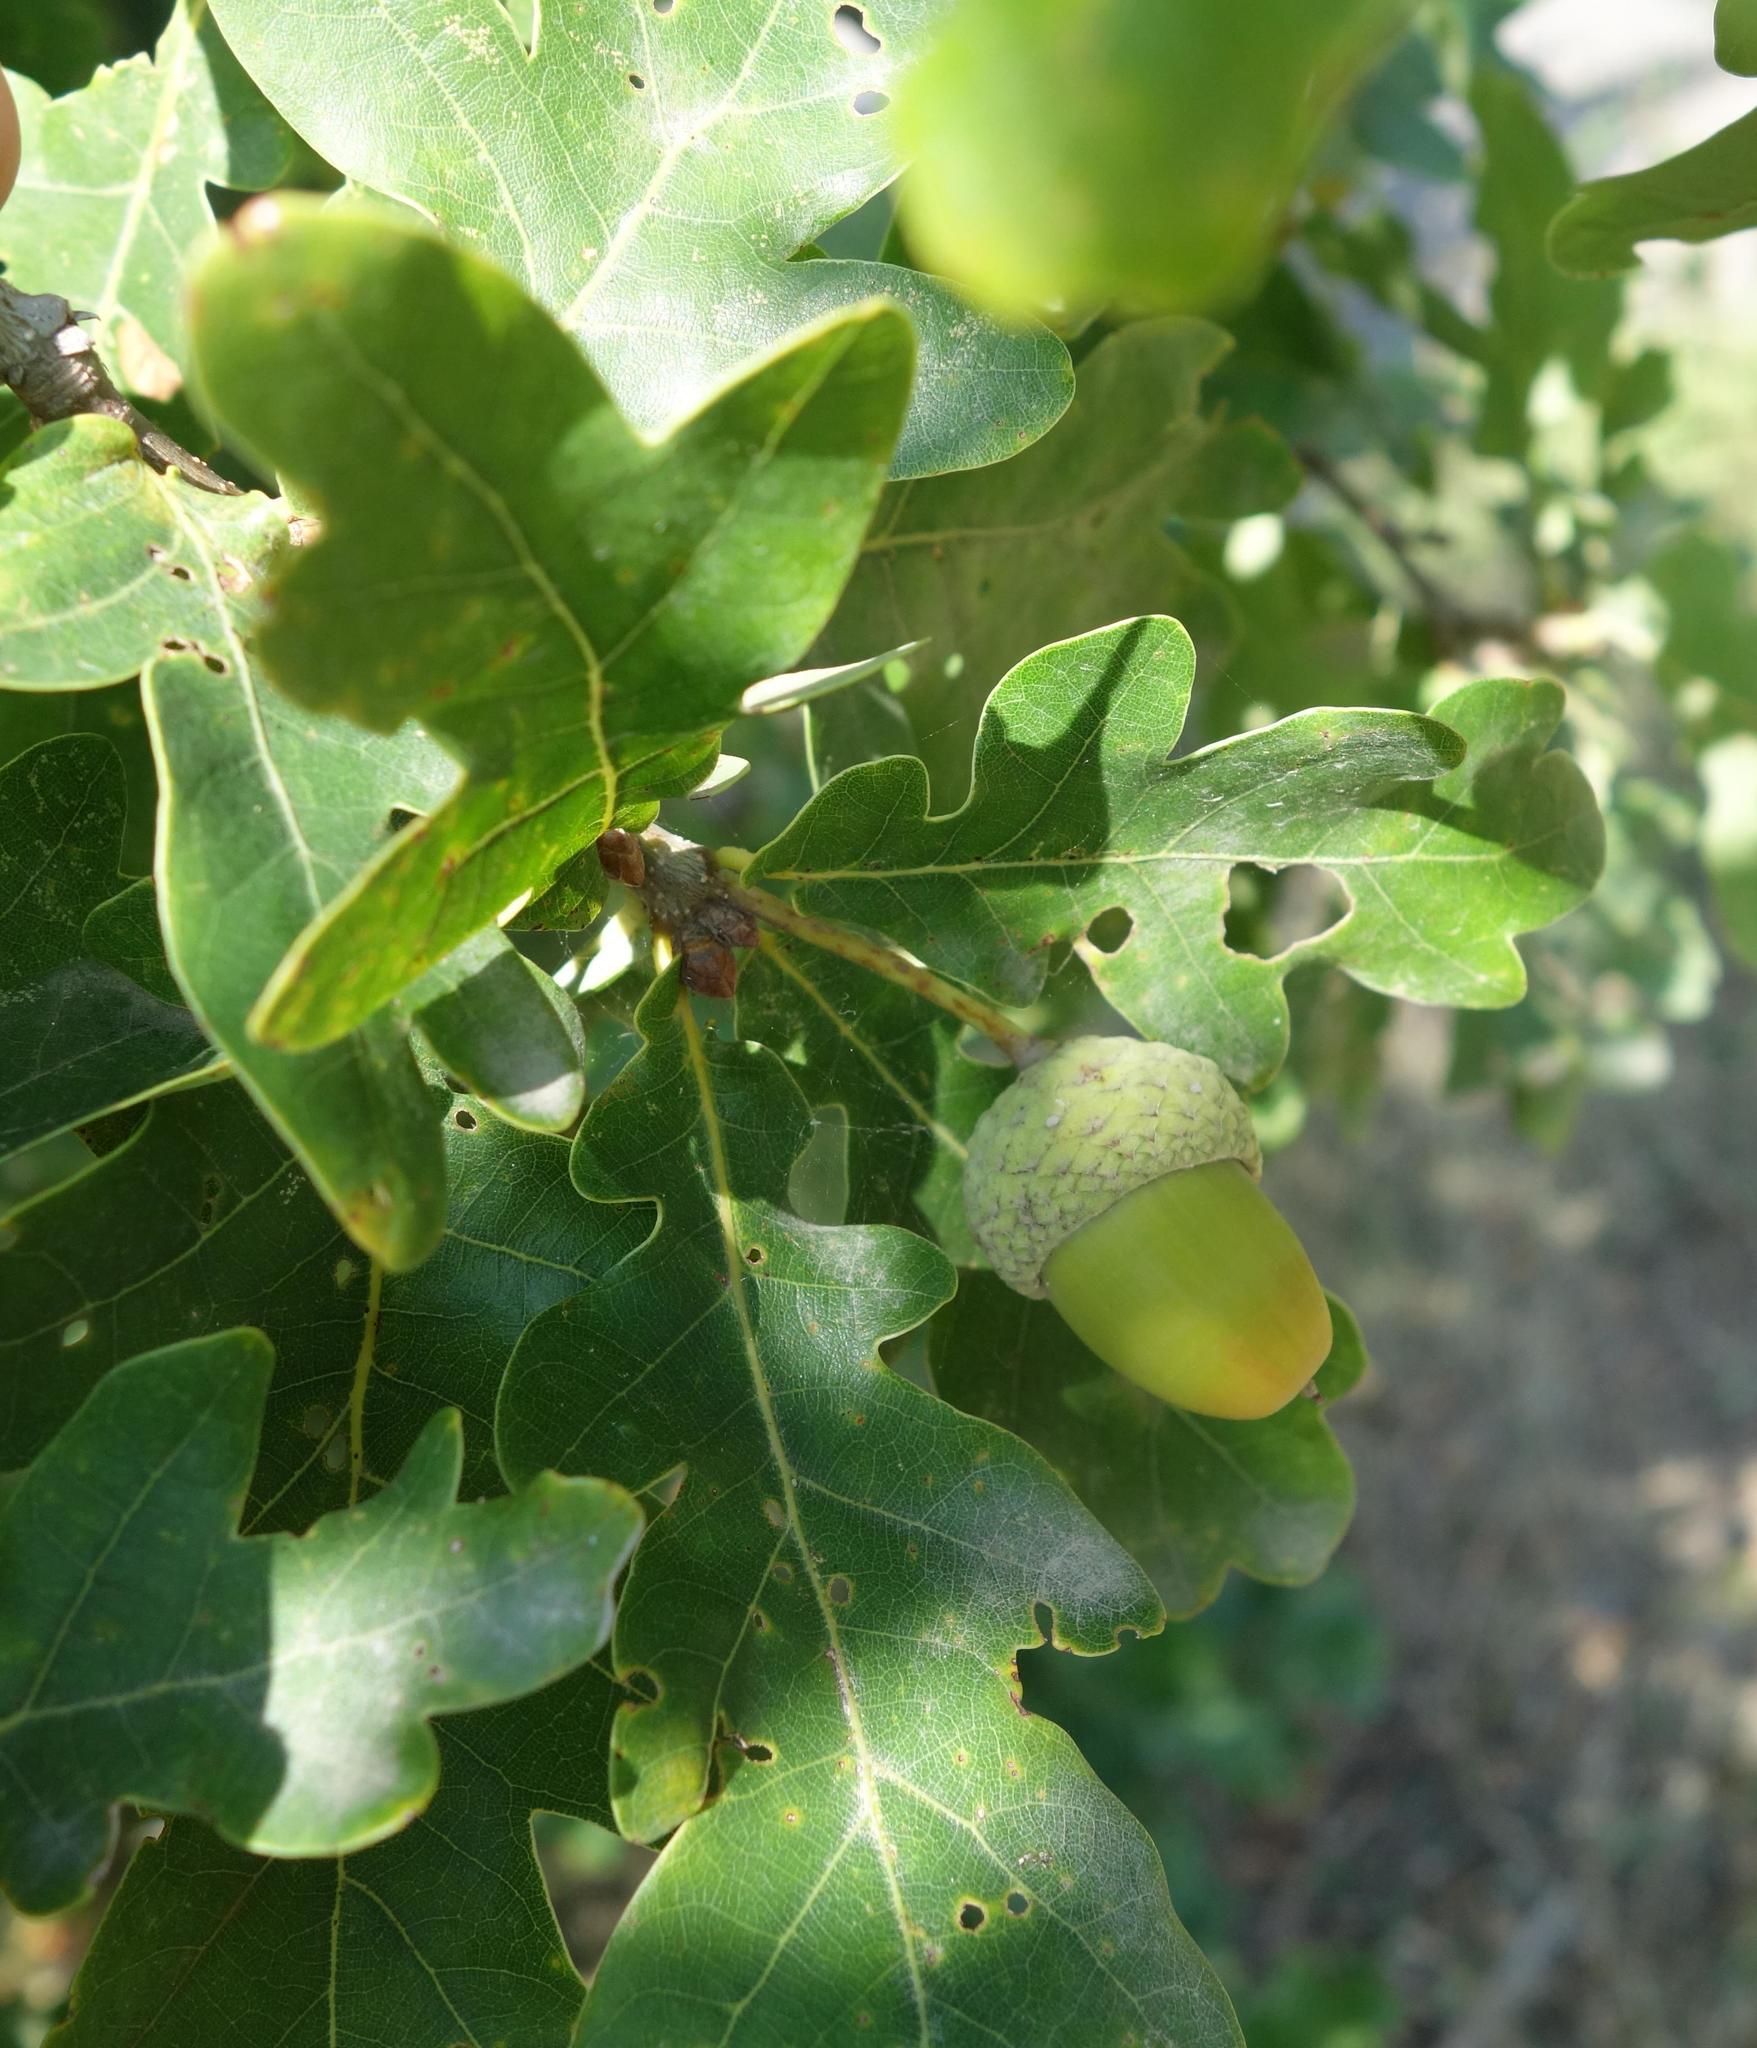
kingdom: Plantae
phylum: Tracheophyta
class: Magnoliopsida
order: Fagales
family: Fagaceae
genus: Quercus
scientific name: Quercus robur
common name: Pedunculate oak
